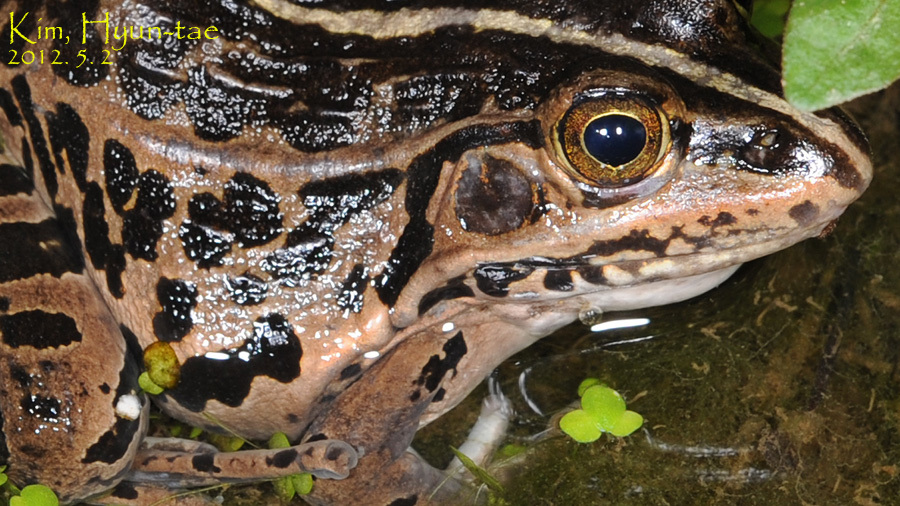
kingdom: Animalia
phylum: Chordata
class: Amphibia
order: Anura
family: Ranidae
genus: Pelophylax
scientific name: Pelophylax nigromaculatus
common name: Black-spotted pond frog
